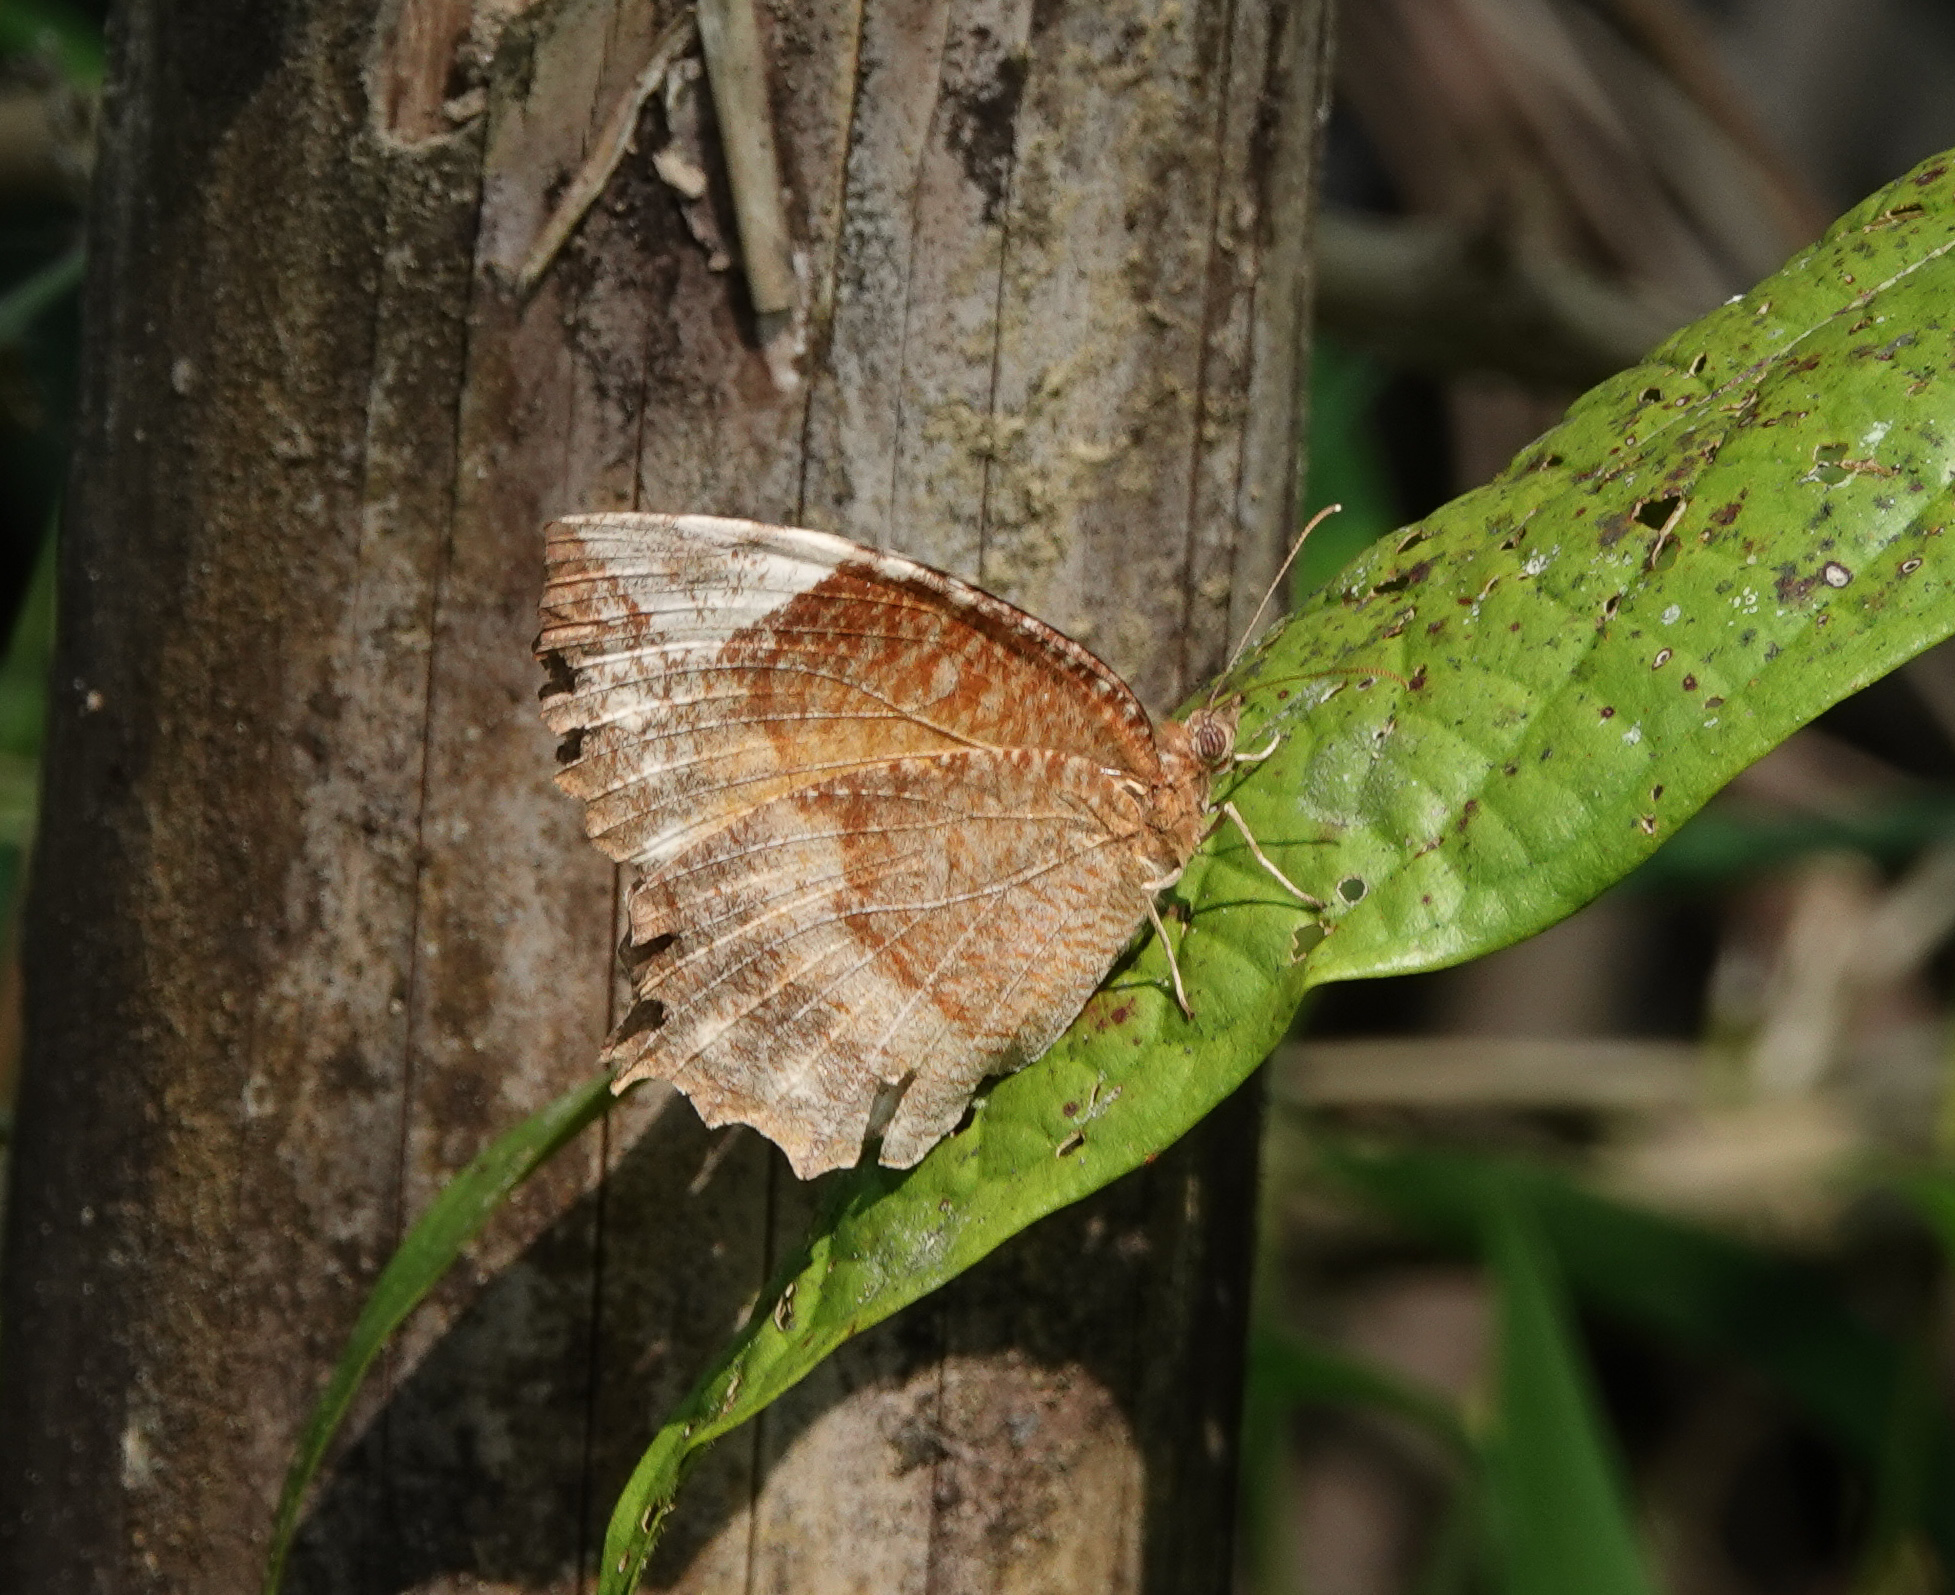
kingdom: Animalia
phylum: Arthropoda
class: Insecta
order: Lepidoptera
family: Nymphalidae
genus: Elymnias
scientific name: Elymnias hypermnestra
